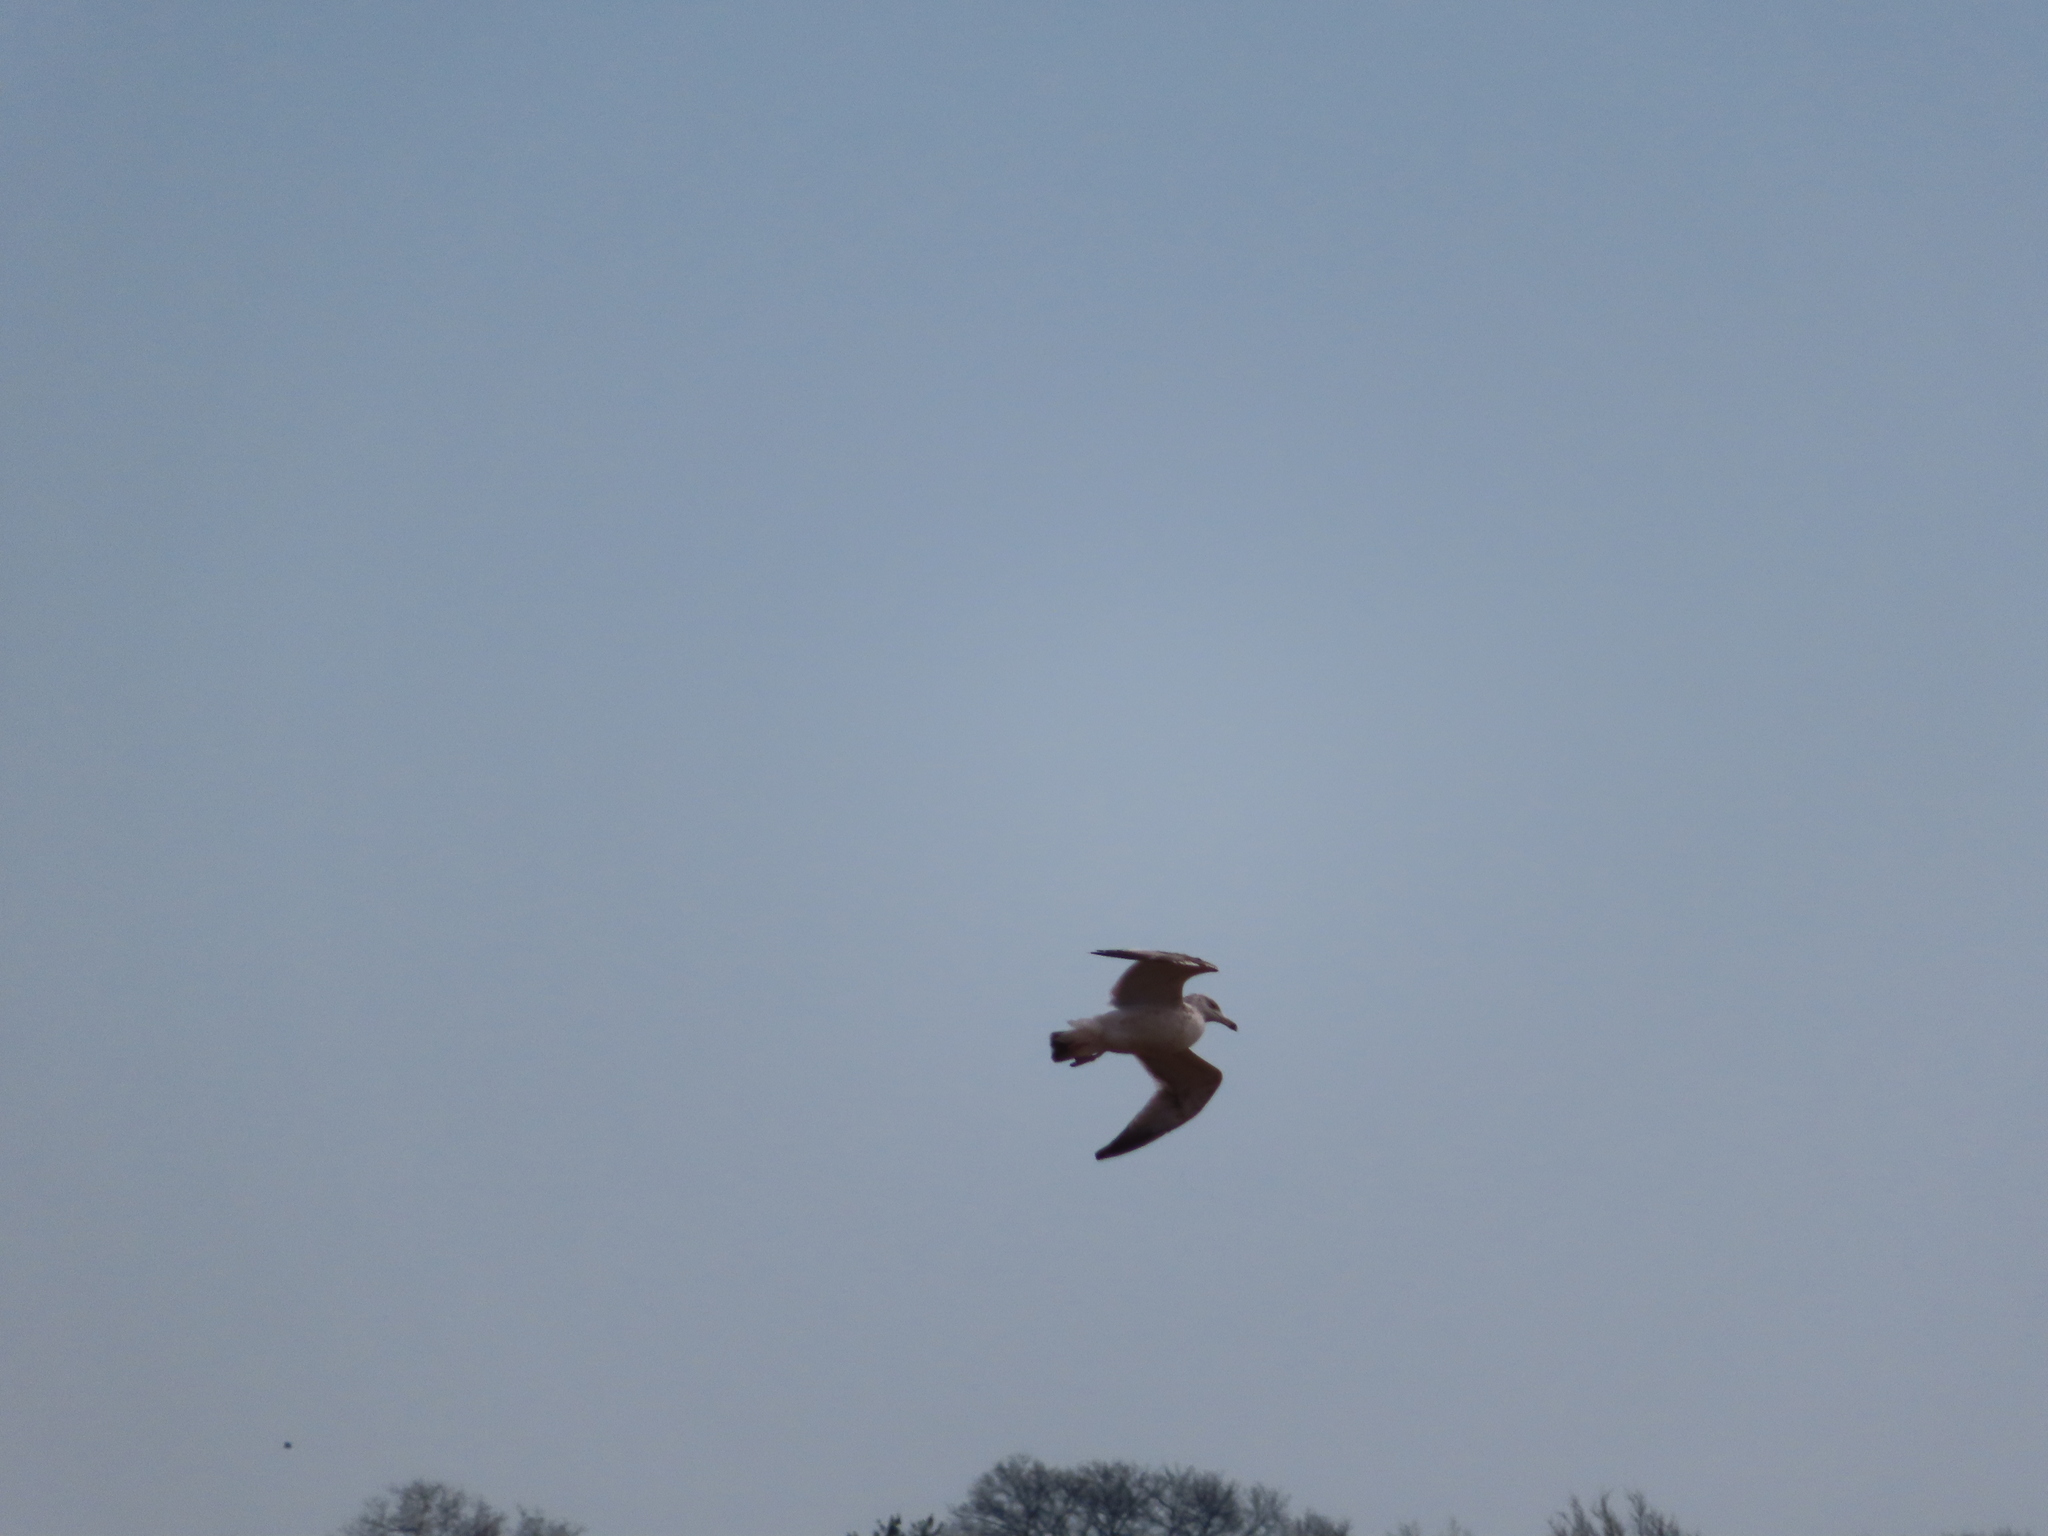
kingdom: Animalia
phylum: Chordata
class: Aves
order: Charadriiformes
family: Laridae
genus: Larus
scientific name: Larus argentatus
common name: Herring gull
